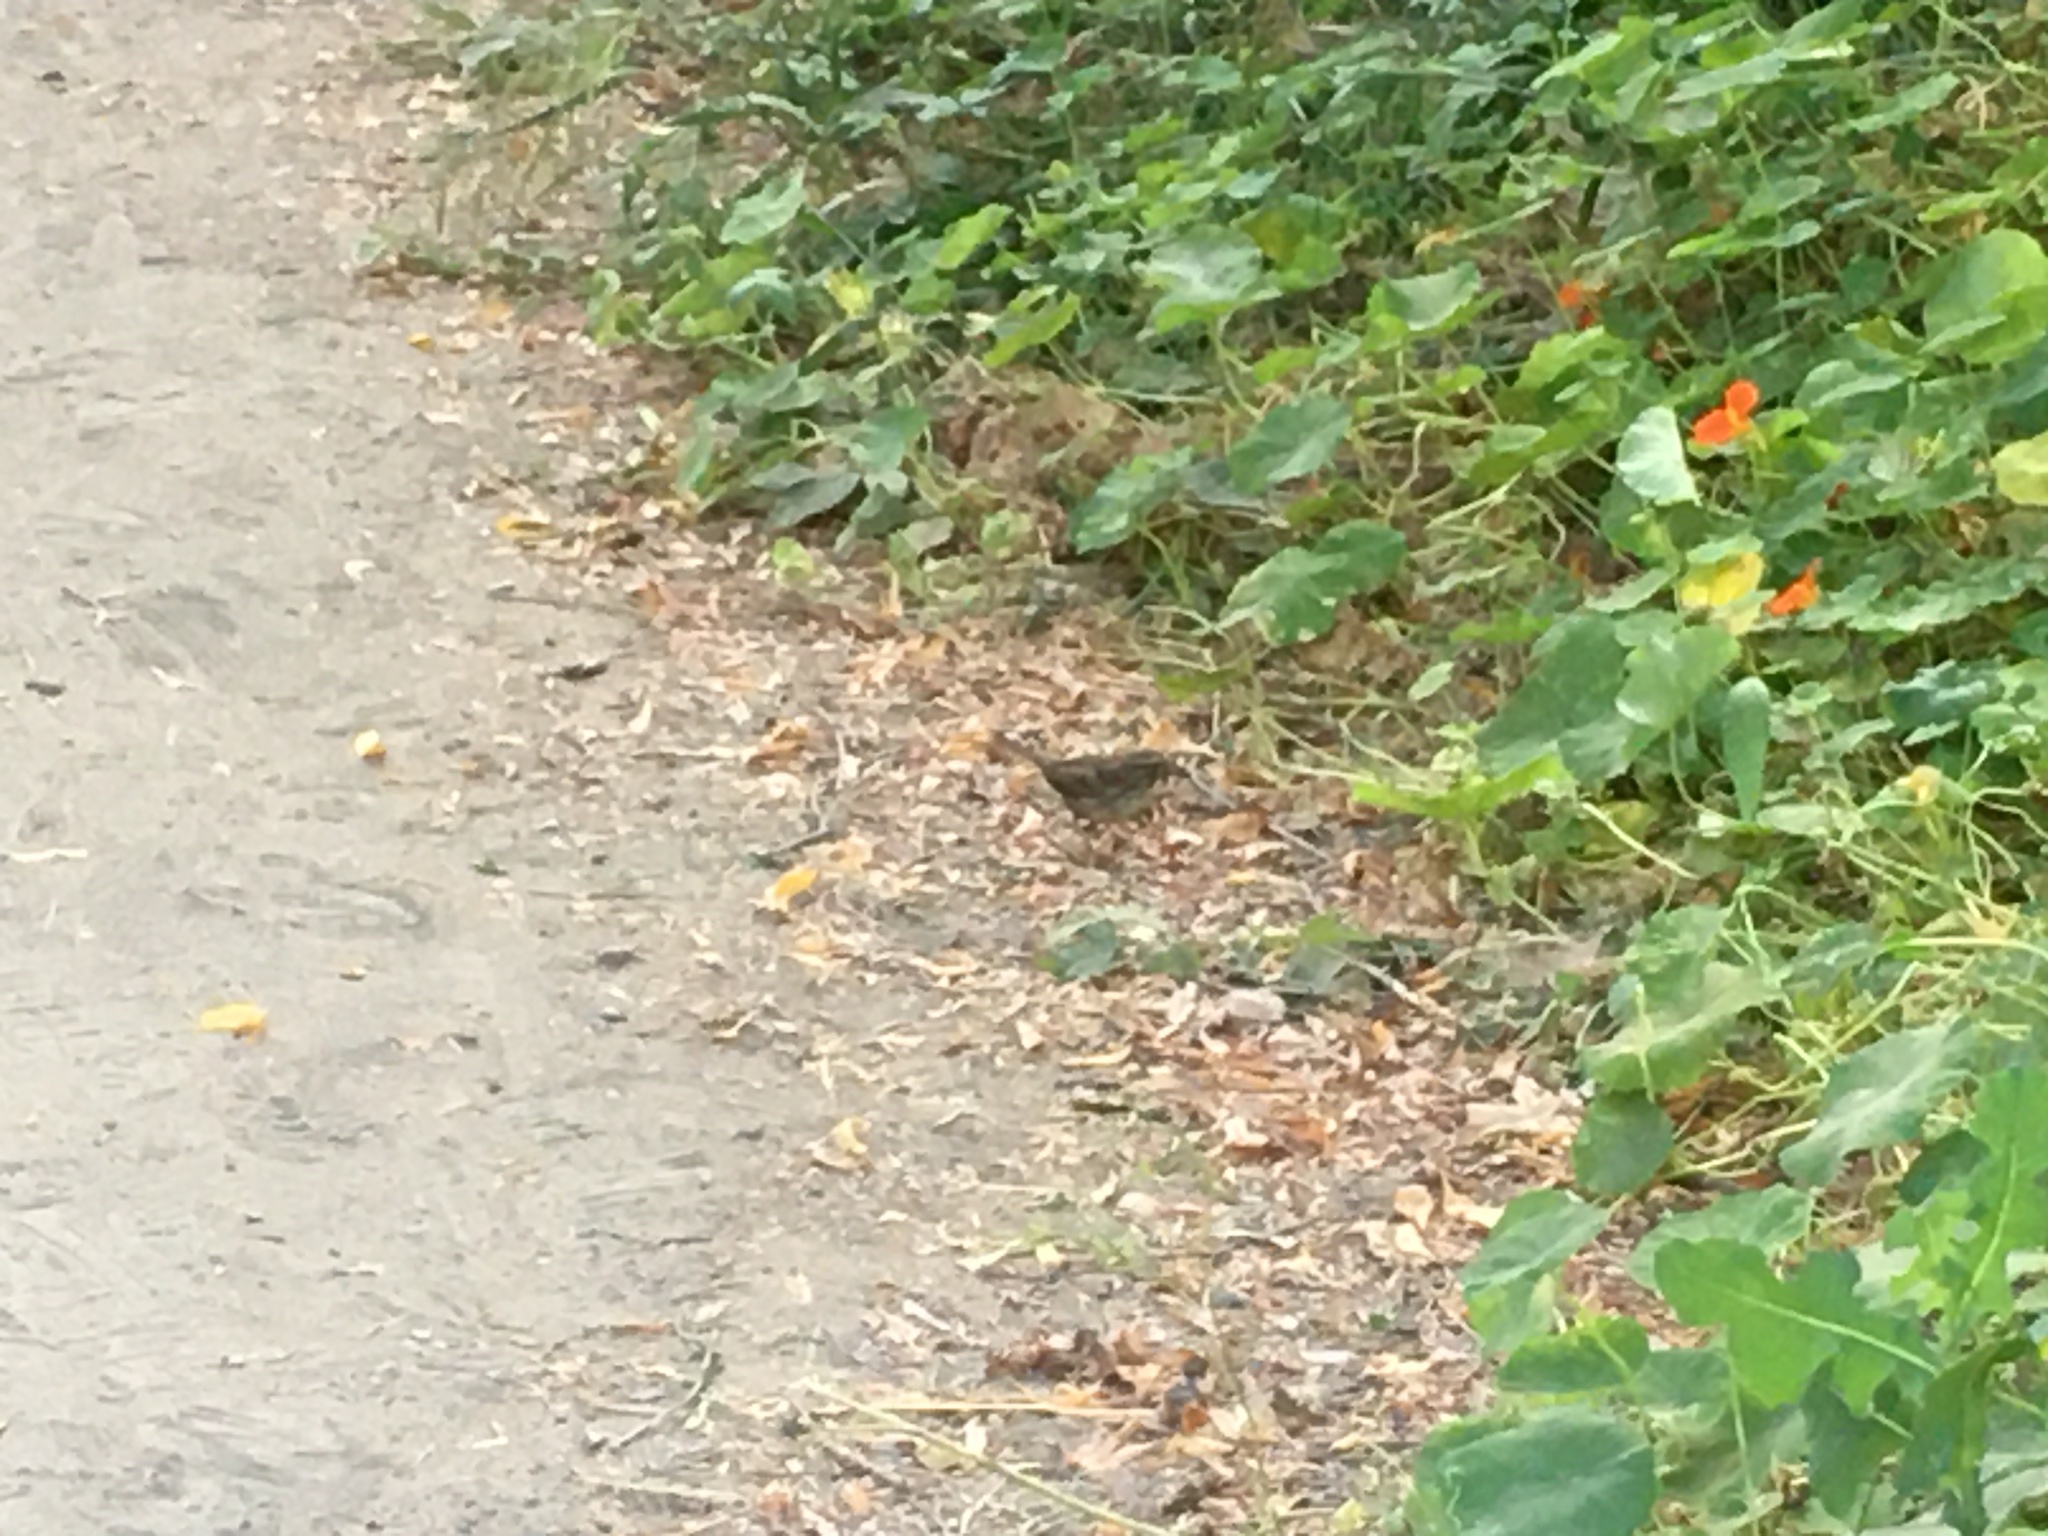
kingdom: Animalia
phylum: Chordata
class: Aves
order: Passeriformes
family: Passerellidae
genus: Melospiza
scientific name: Melospiza melodia
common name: Song sparrow
